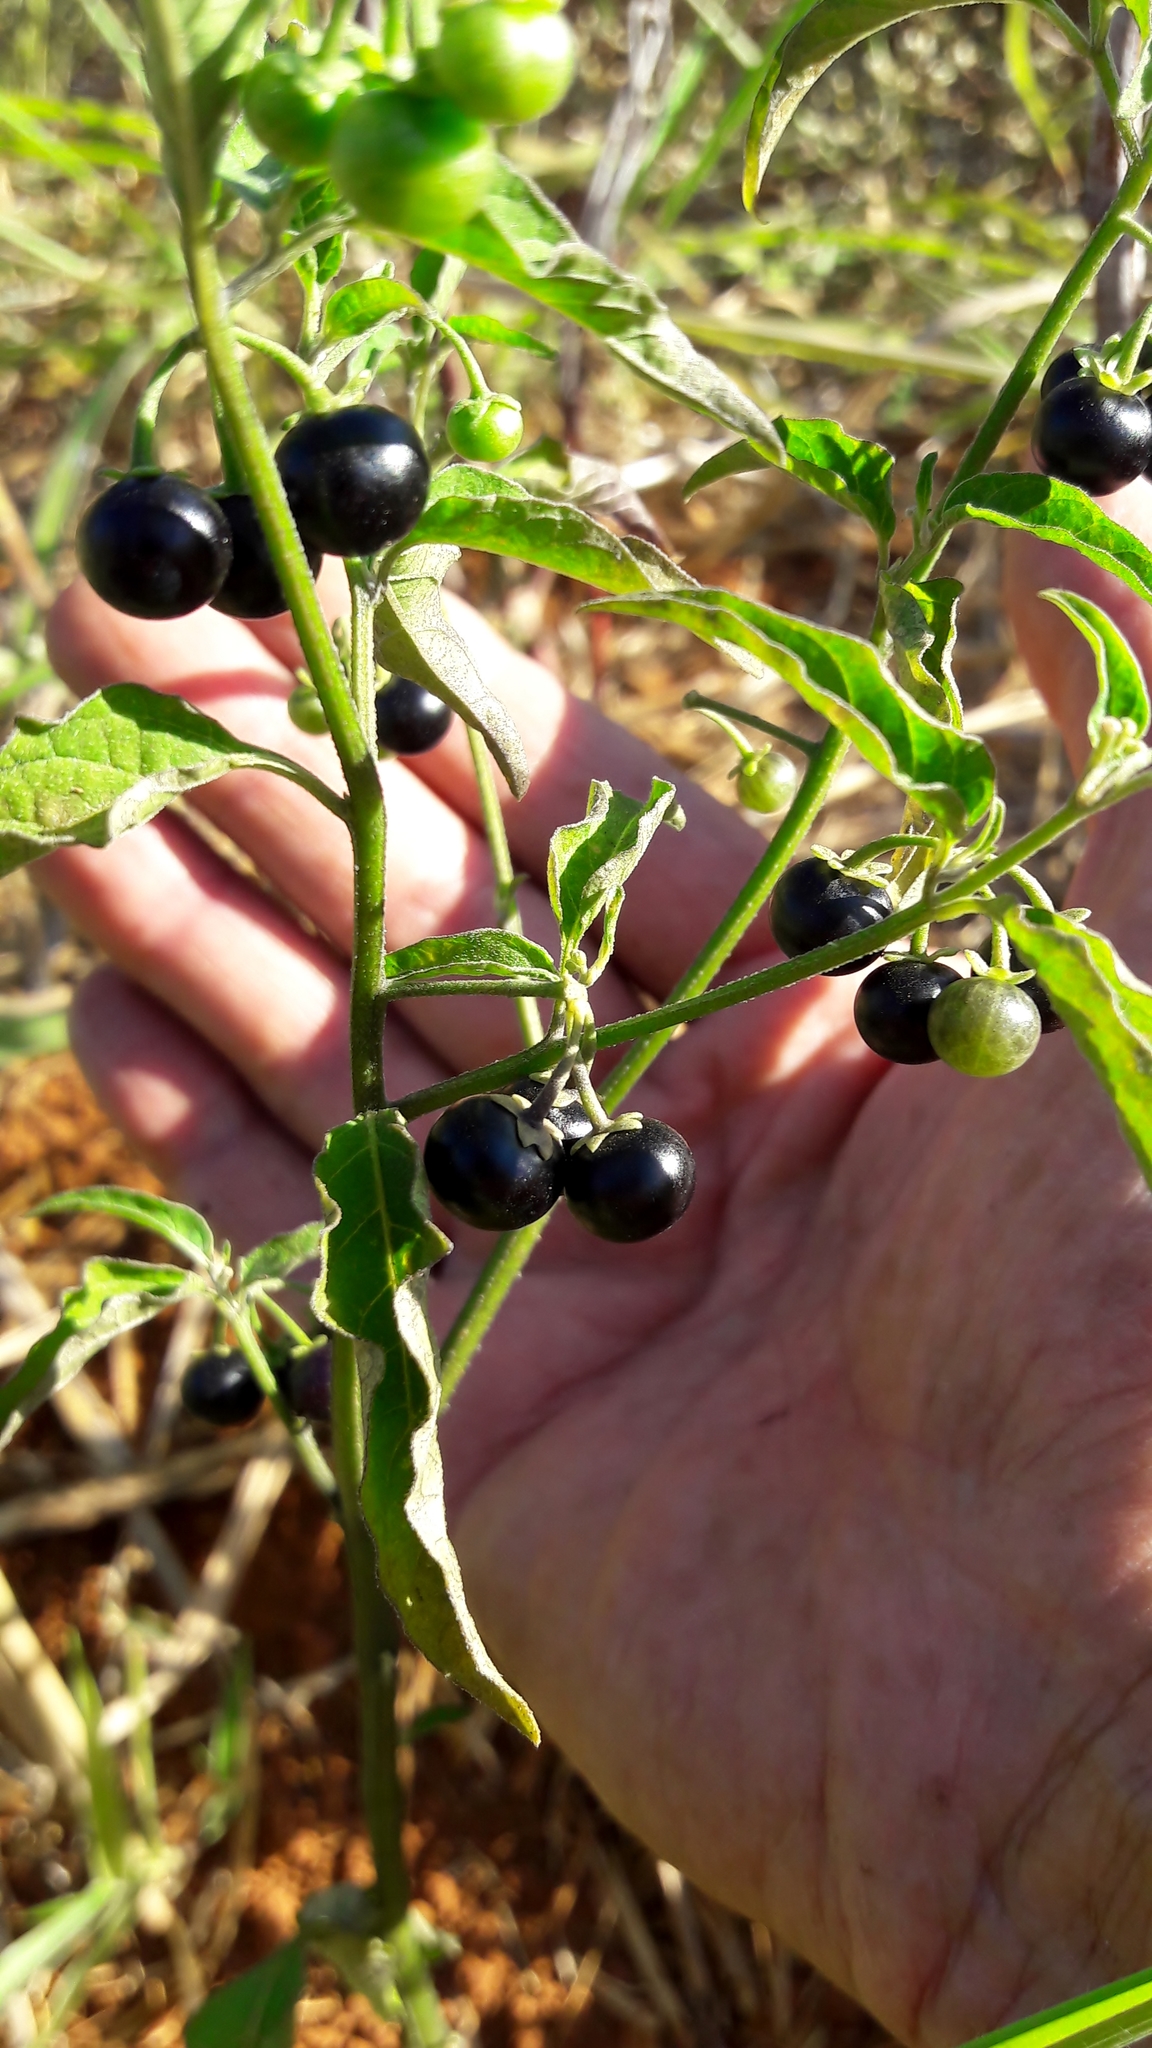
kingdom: Plantae
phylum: Tracheophyta
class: Magnoliopsida
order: Solanales
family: Solanaceae
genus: Solanum
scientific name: Solanum americanum
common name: American black nightshade
